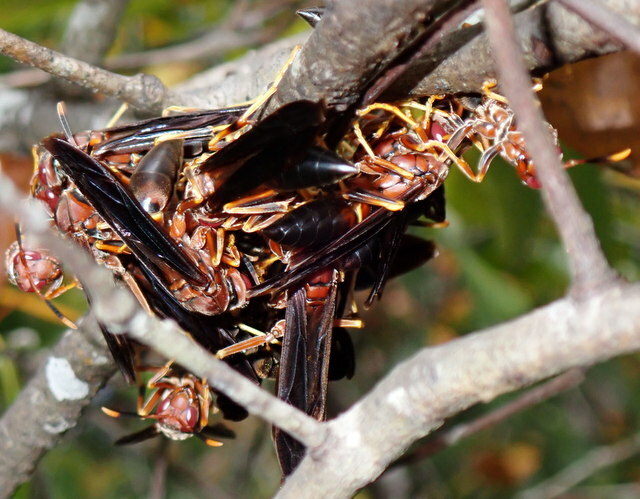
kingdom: Animalia
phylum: Arthropoda
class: Insecta
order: Hymenoptera
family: Eumenidae
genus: Polistes
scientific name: Polistes annularis
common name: Ringed paper wasp
